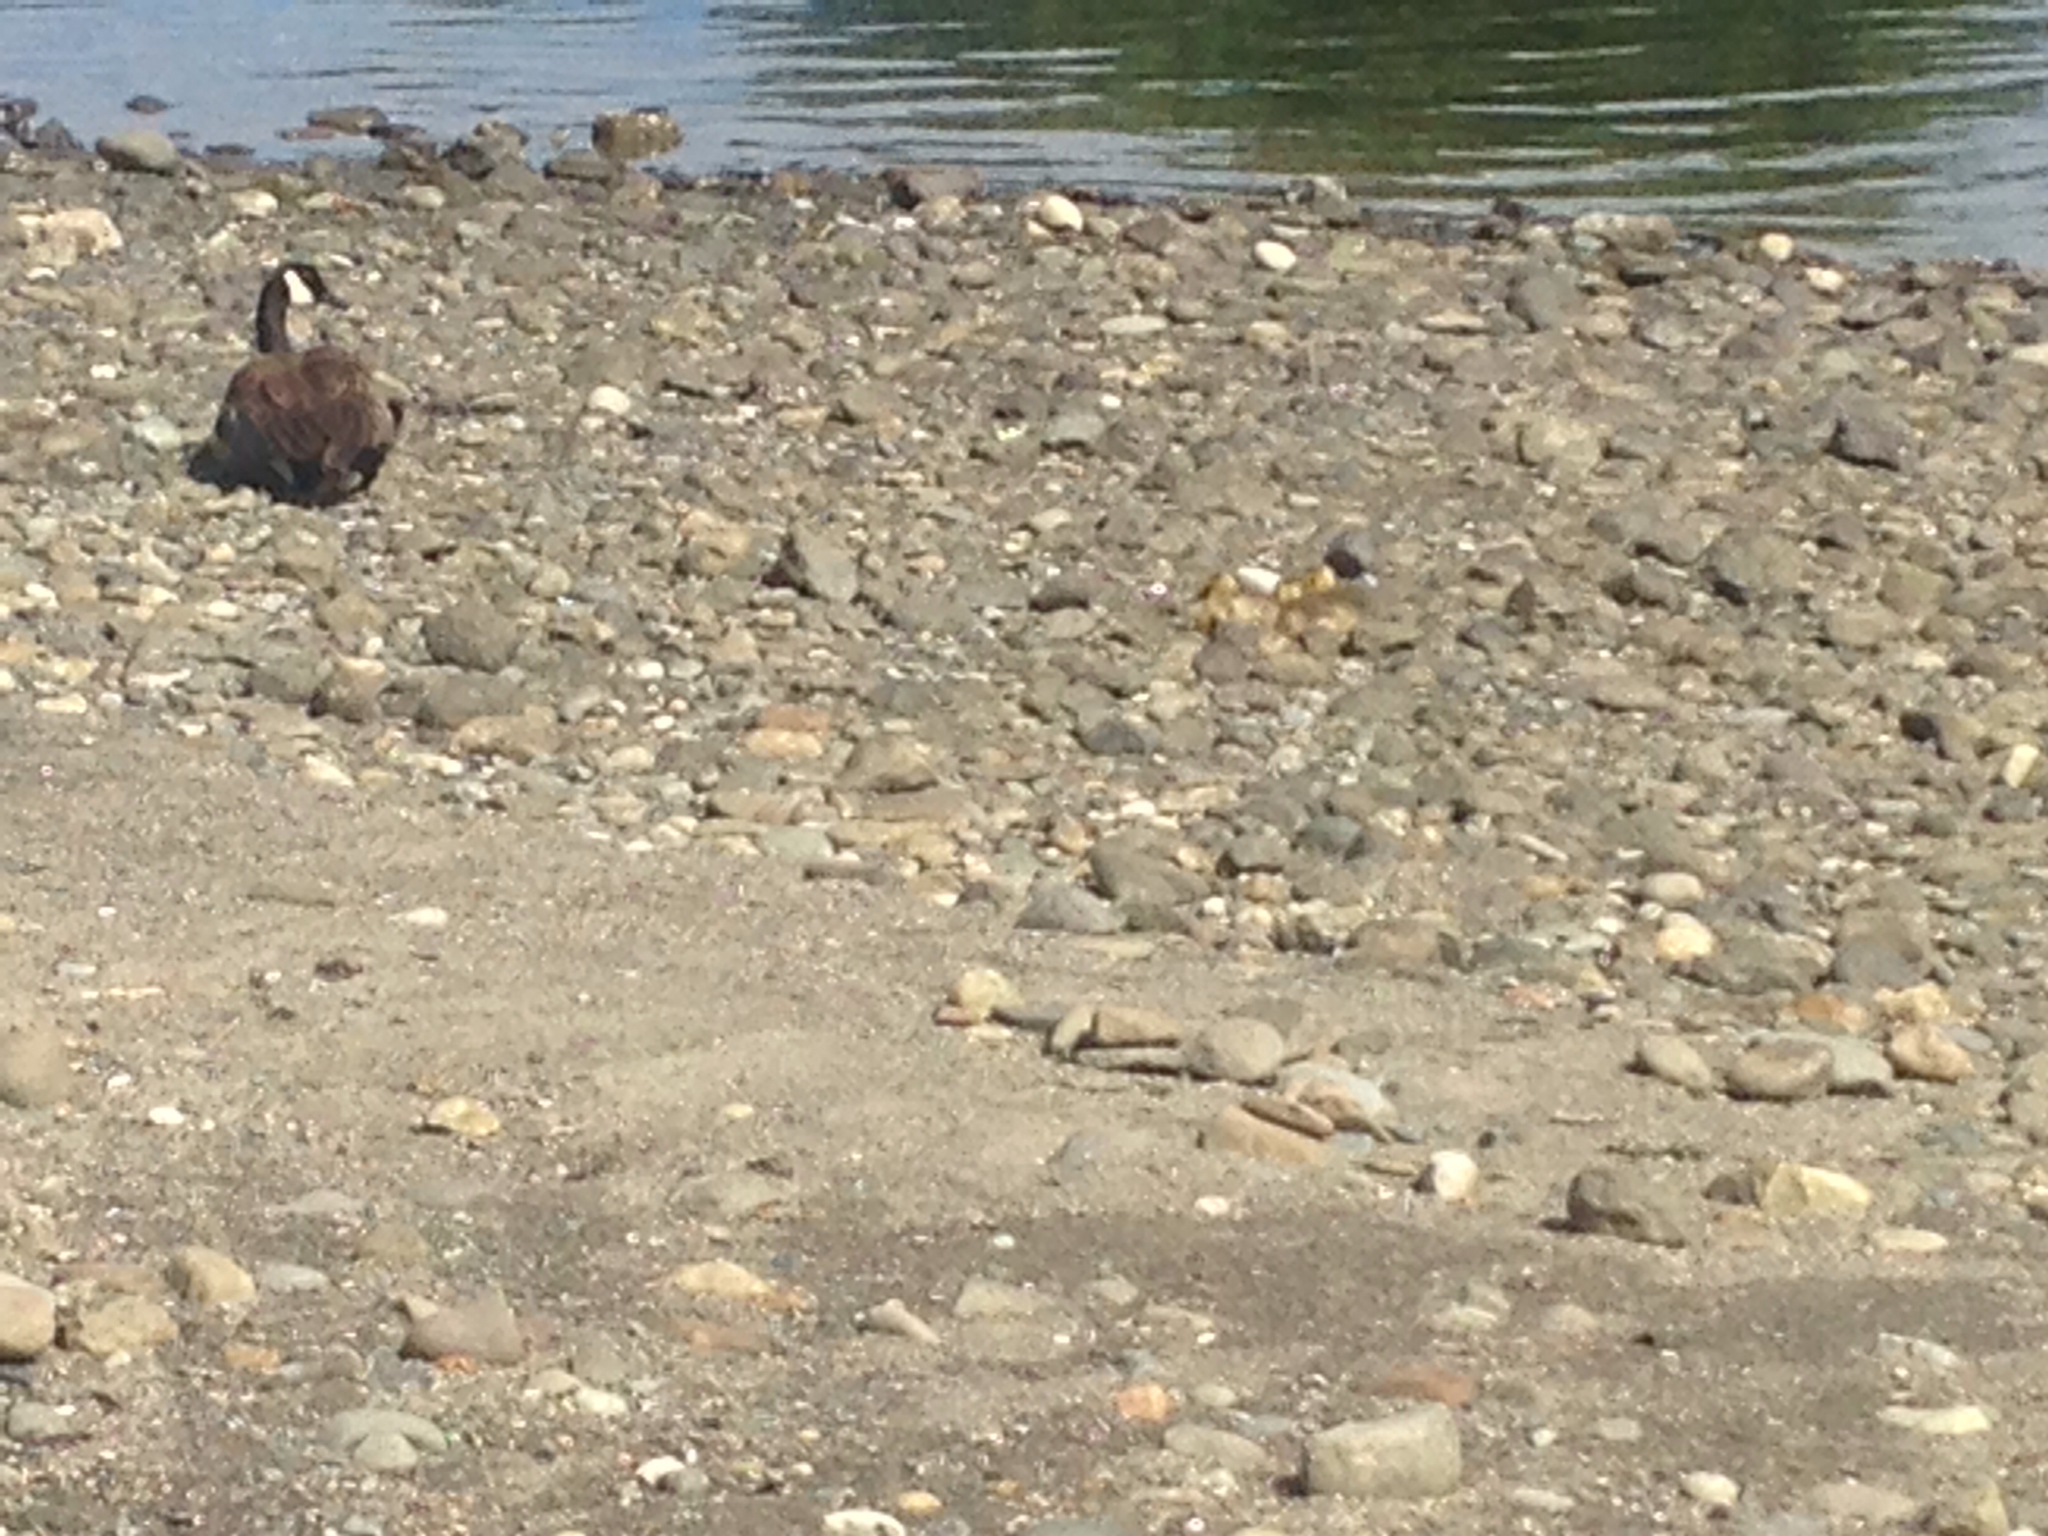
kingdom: Animalia
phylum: Chordata
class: Aves
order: Anseriformes
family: Anatidae
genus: Branta
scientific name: Branta canadensis
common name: Canada goose
